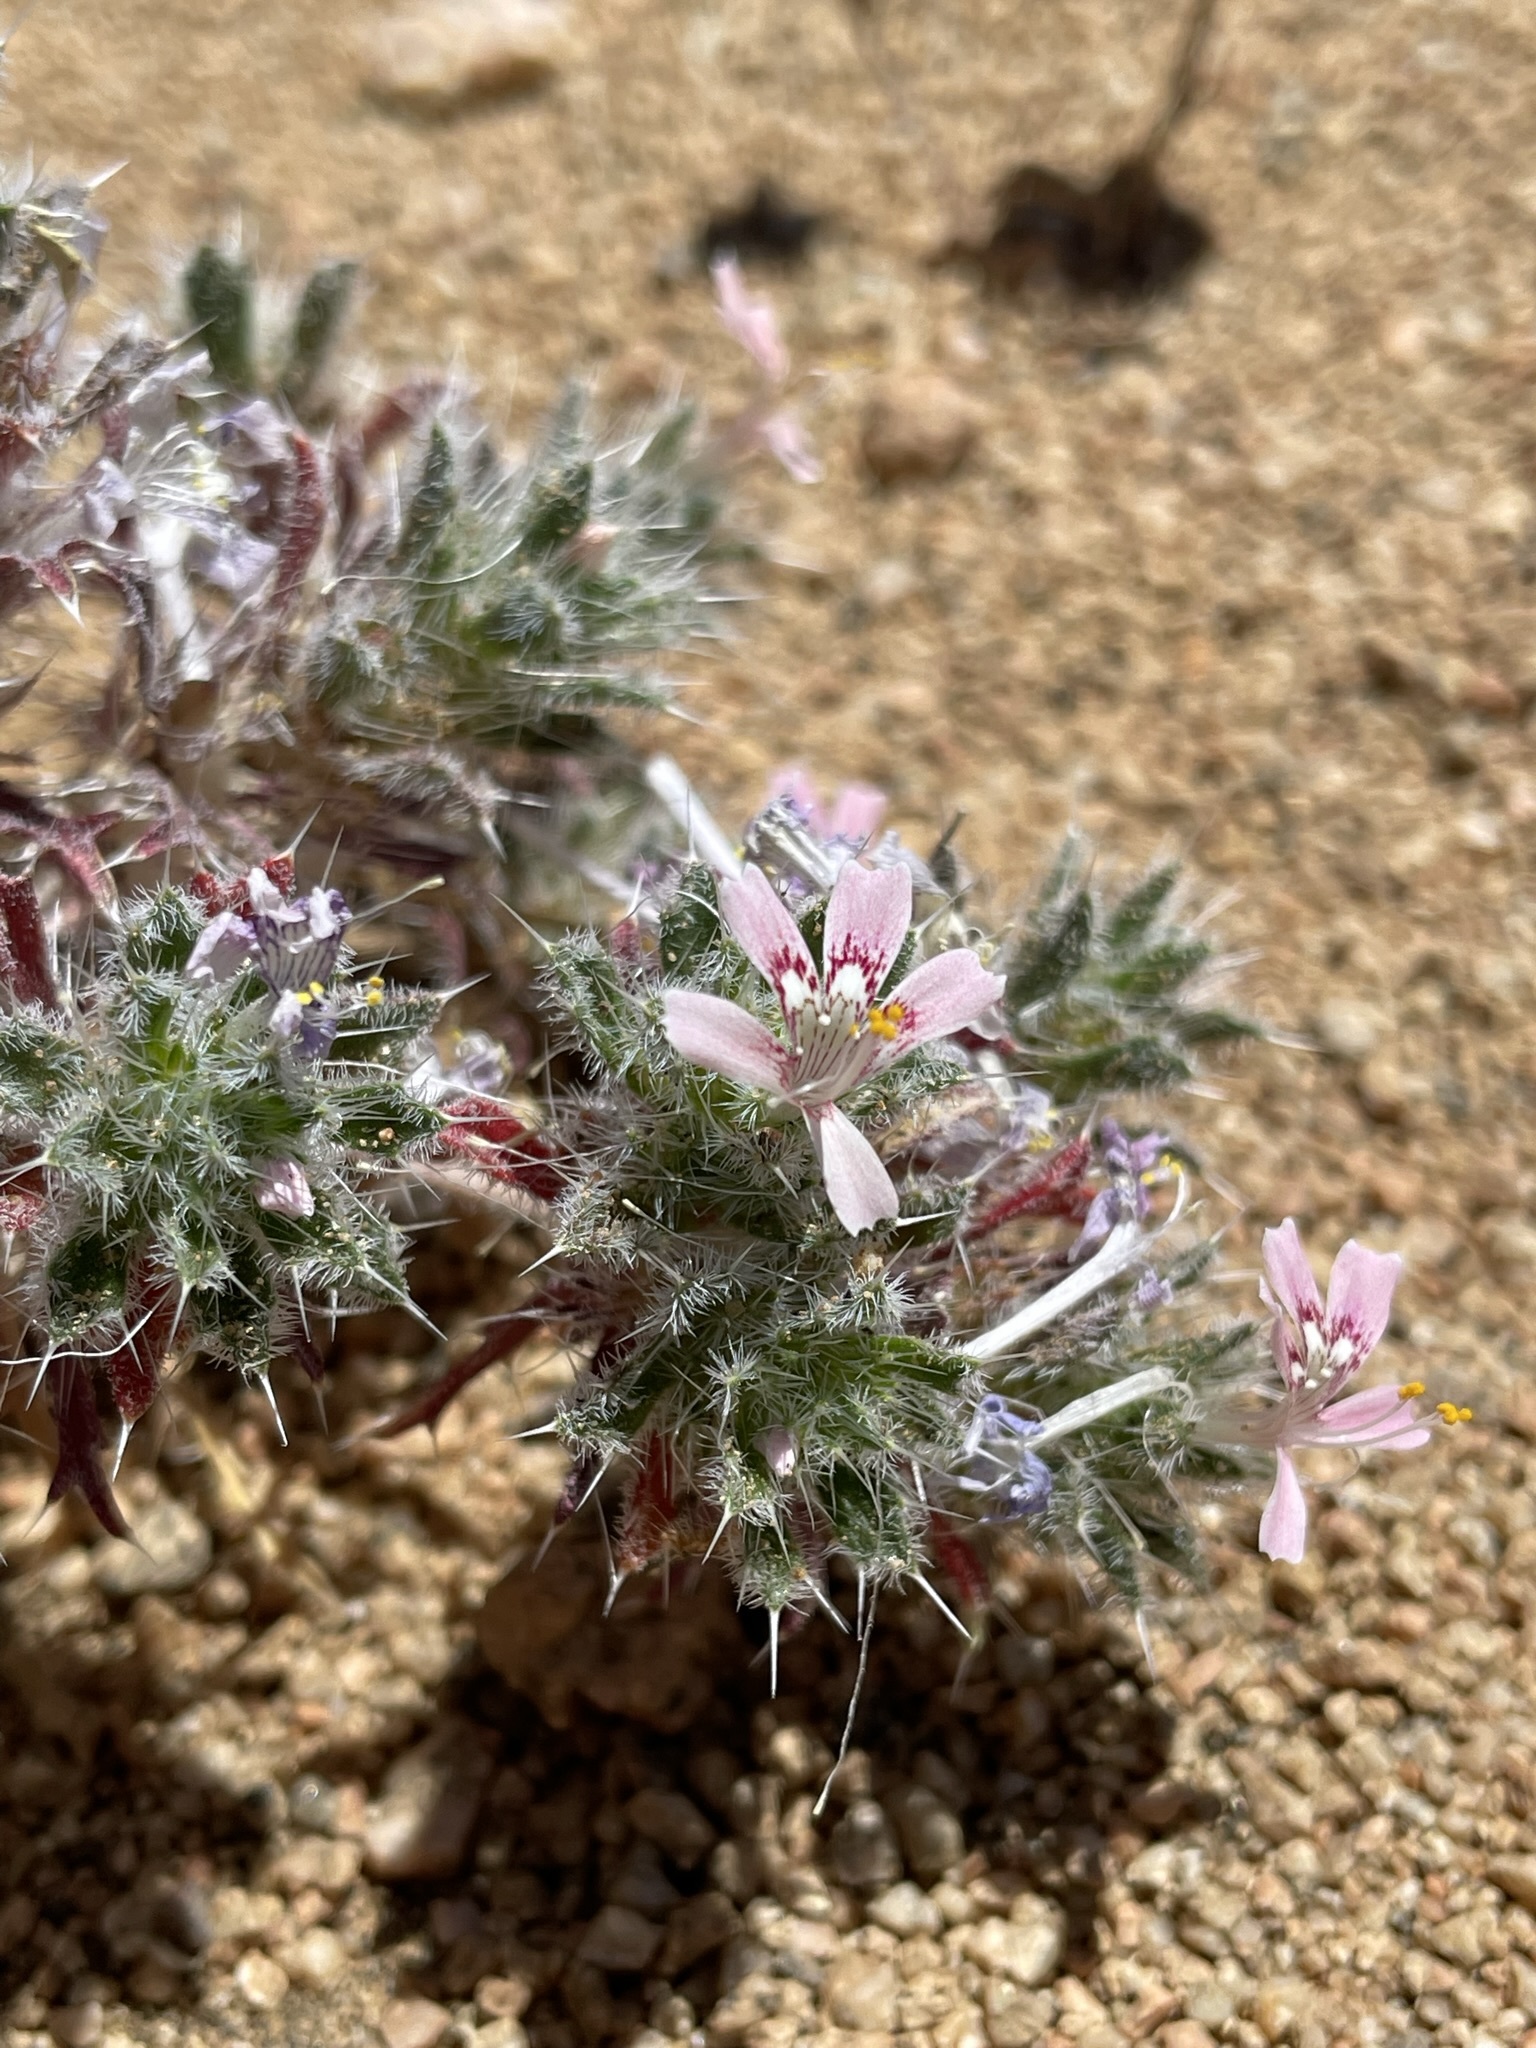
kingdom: Plantae
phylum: Tracheophyta
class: Magnoliopsida
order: Ericales
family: Polemoniaceae
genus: Loeseliastrum
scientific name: Loeseliastrum matthewsii
